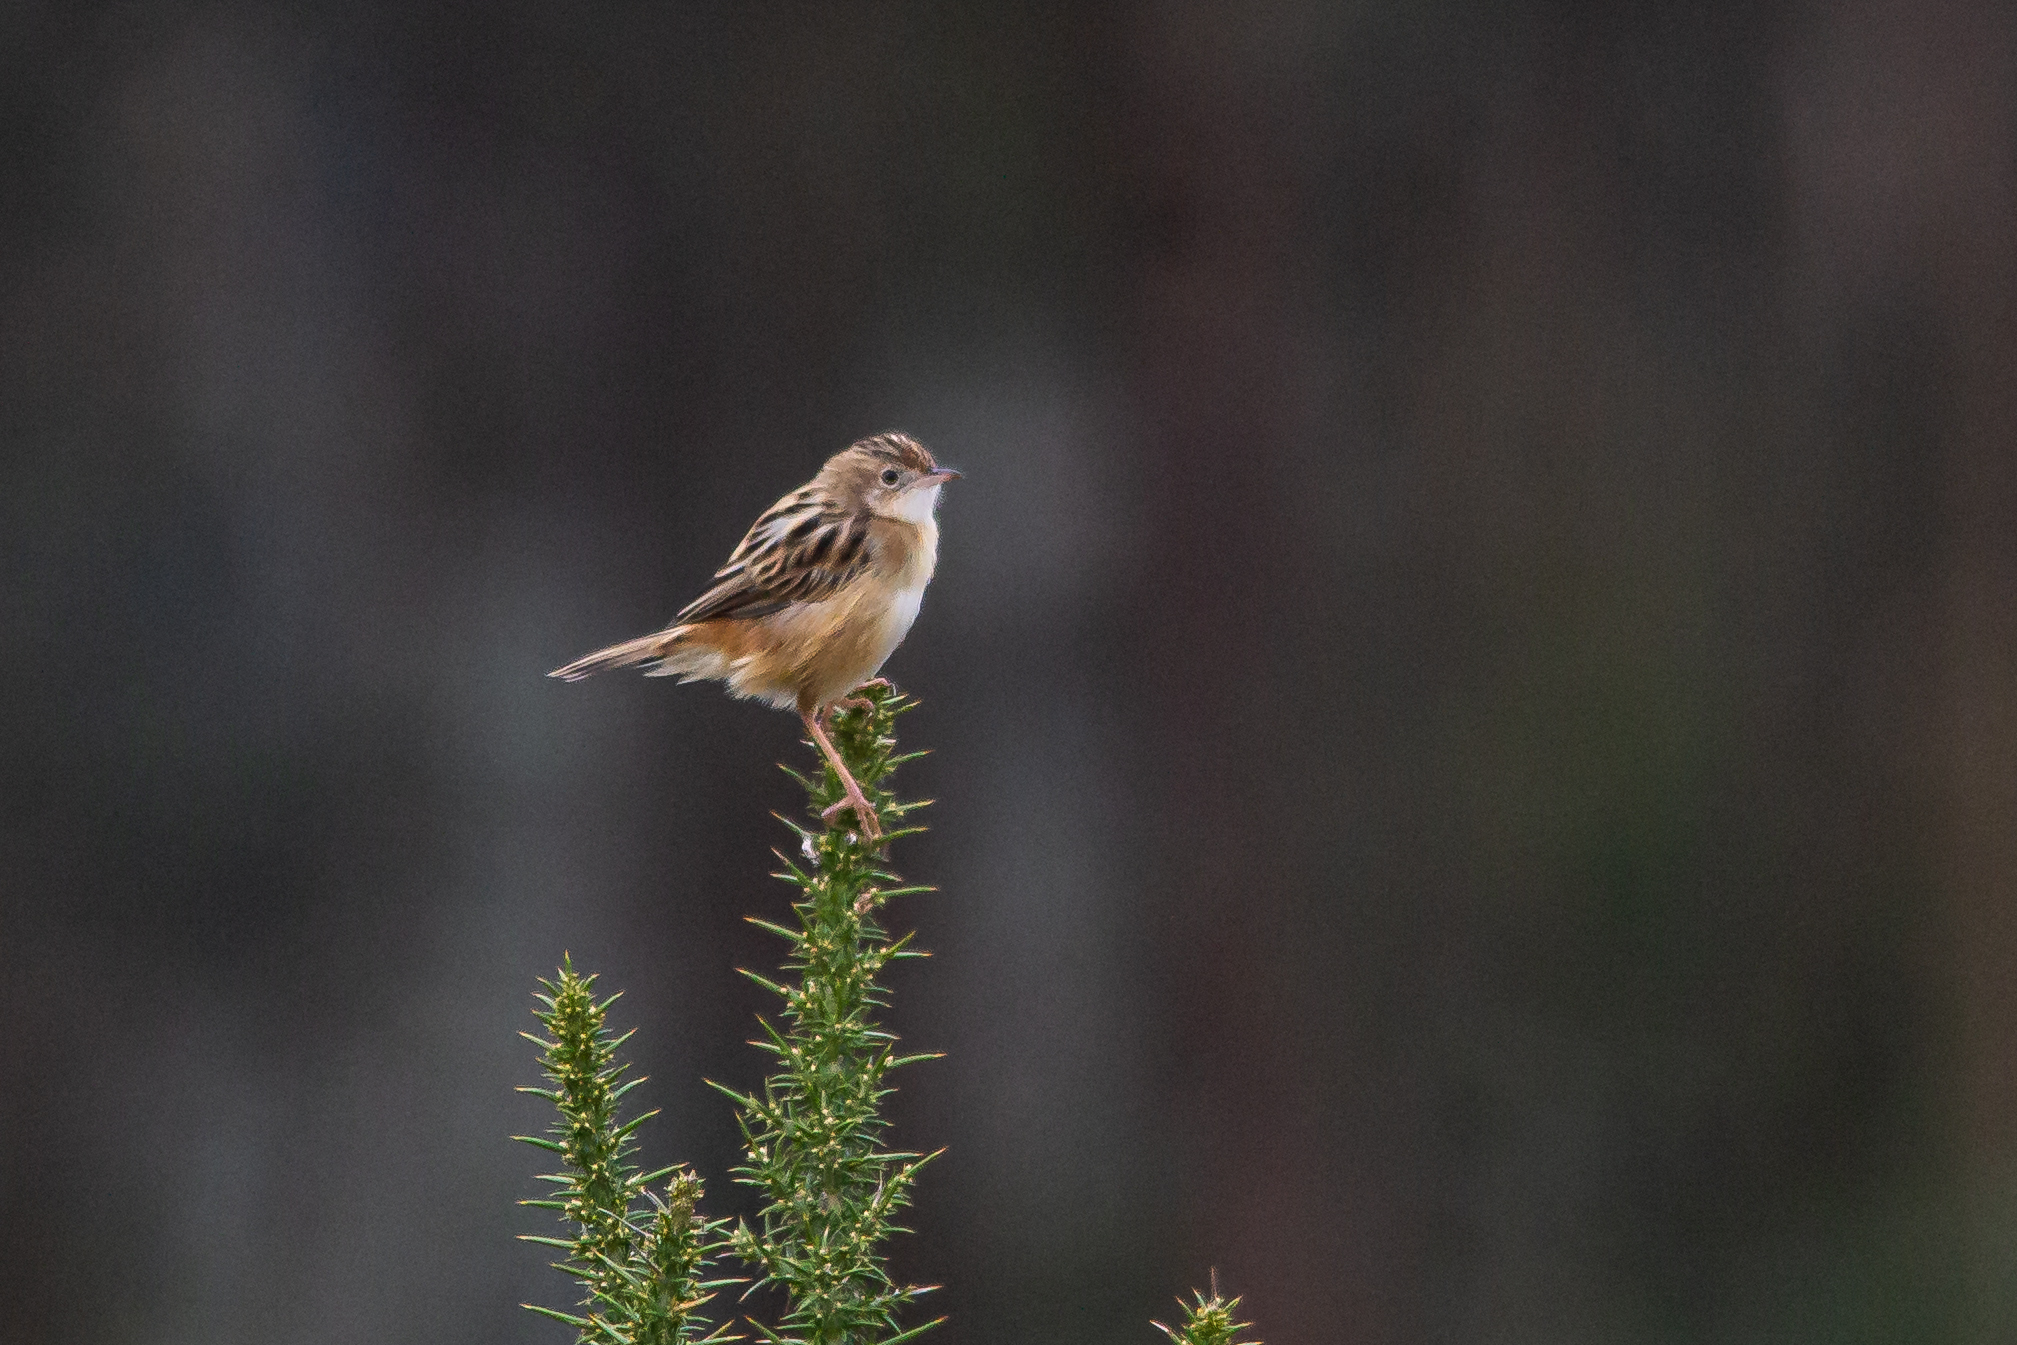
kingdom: Animalia
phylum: Chordata
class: Aves
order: Passeriformes
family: Cisticolidae
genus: Cisticola
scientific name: Cisticola juncidis
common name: Zitting cisticola
